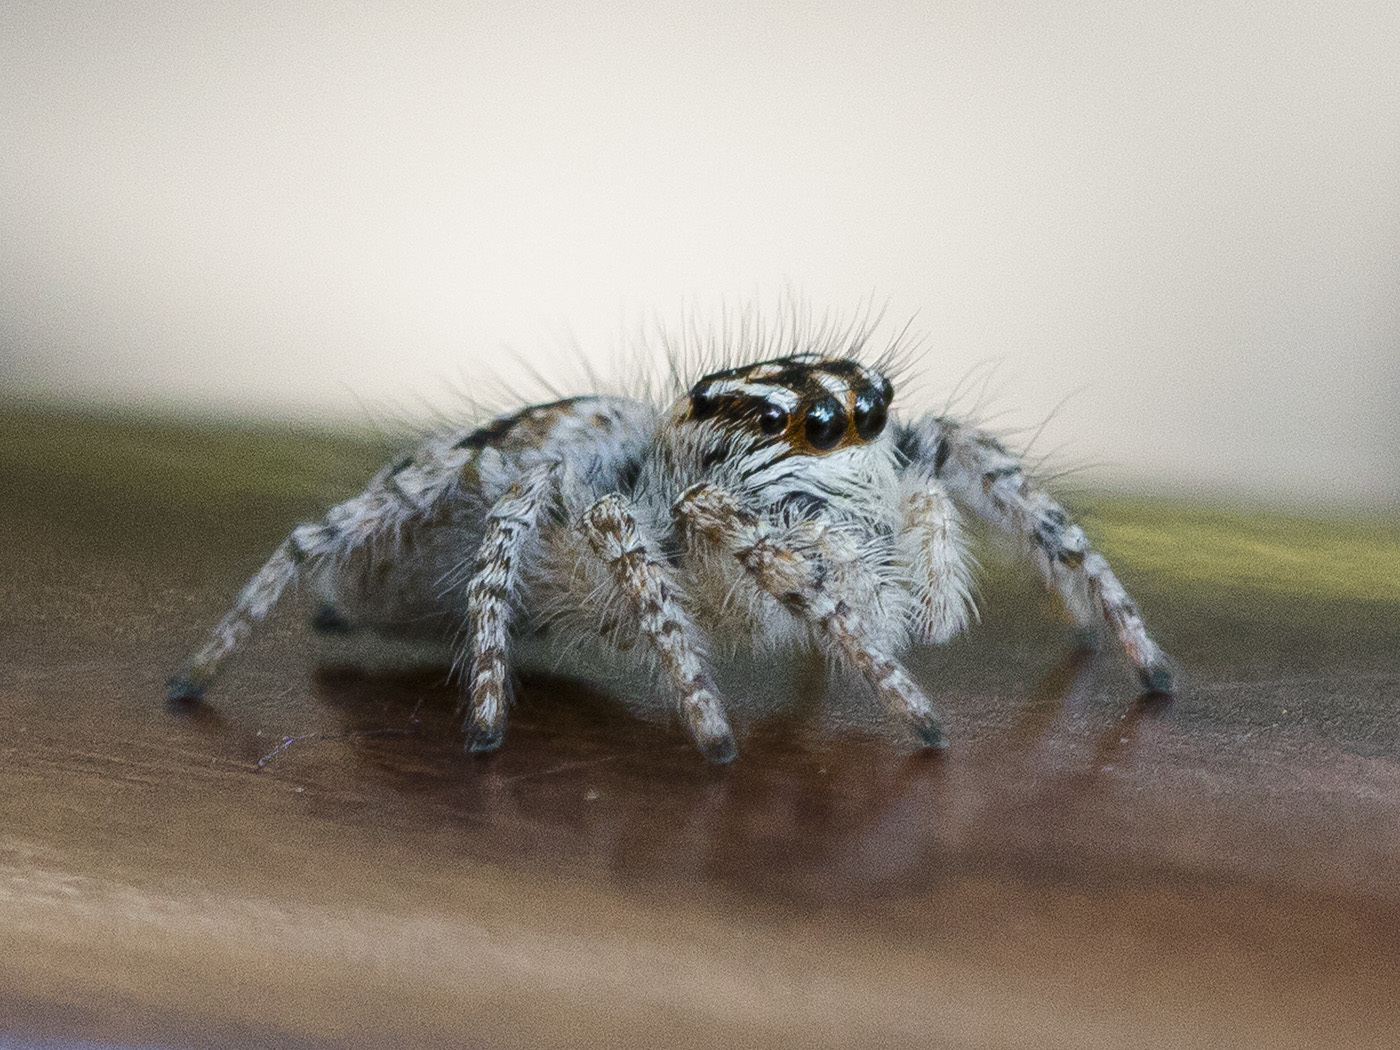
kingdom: Animalia
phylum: Arthropoda
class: Arachnida
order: Araneae
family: Salticidae
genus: Philaeus
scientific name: Philaeus chrysops
